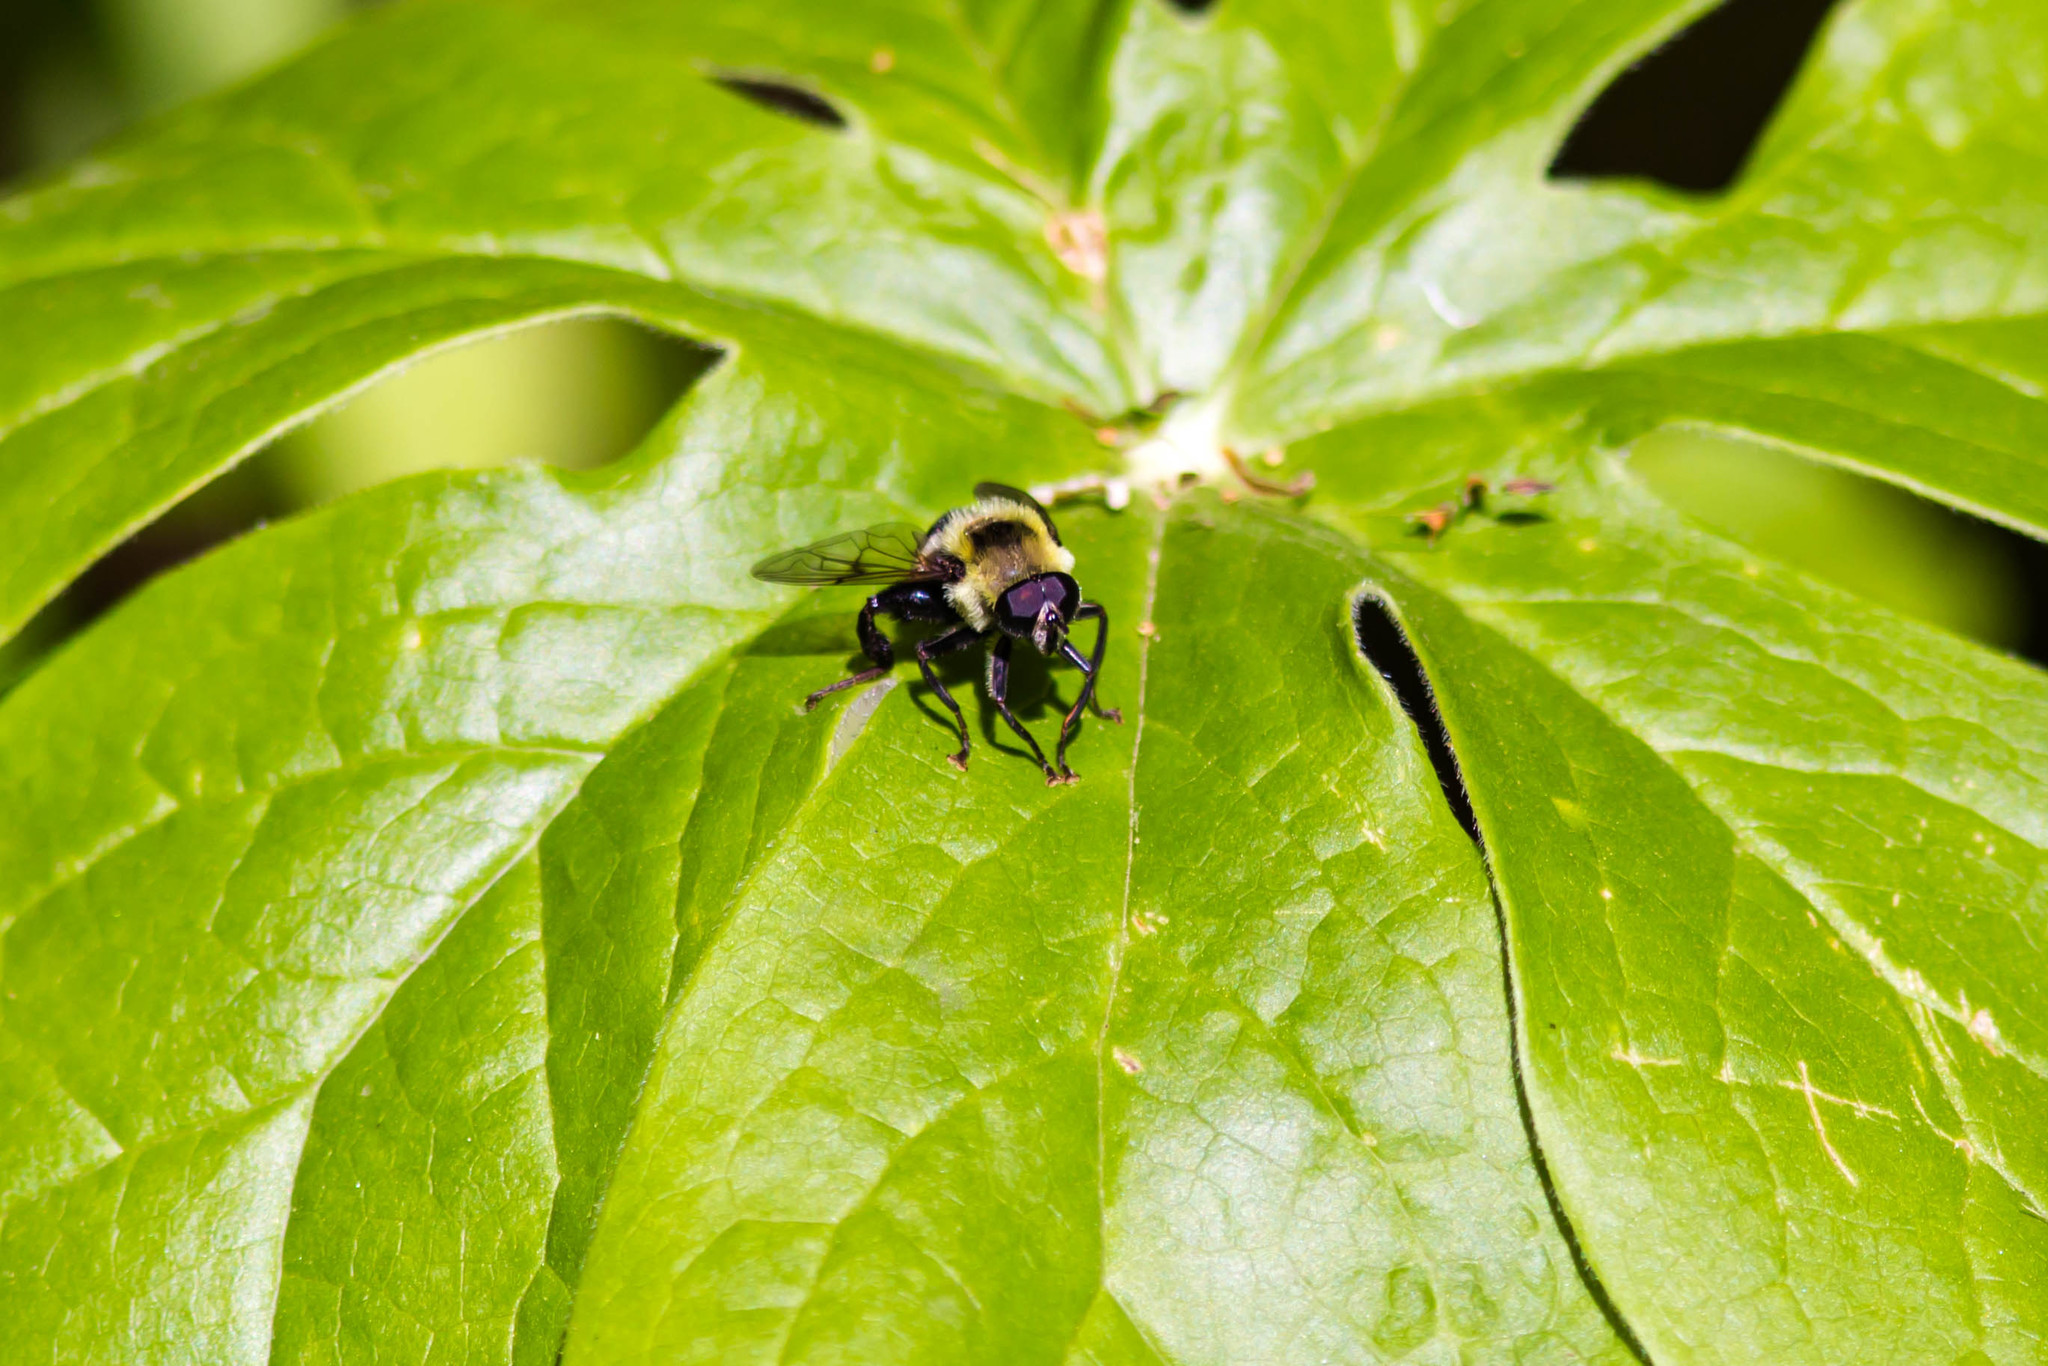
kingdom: Animalia
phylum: Arthropoda
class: Insecta
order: Diptera
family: Syrphidae
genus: Imatisma
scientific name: Imatisma posticata
